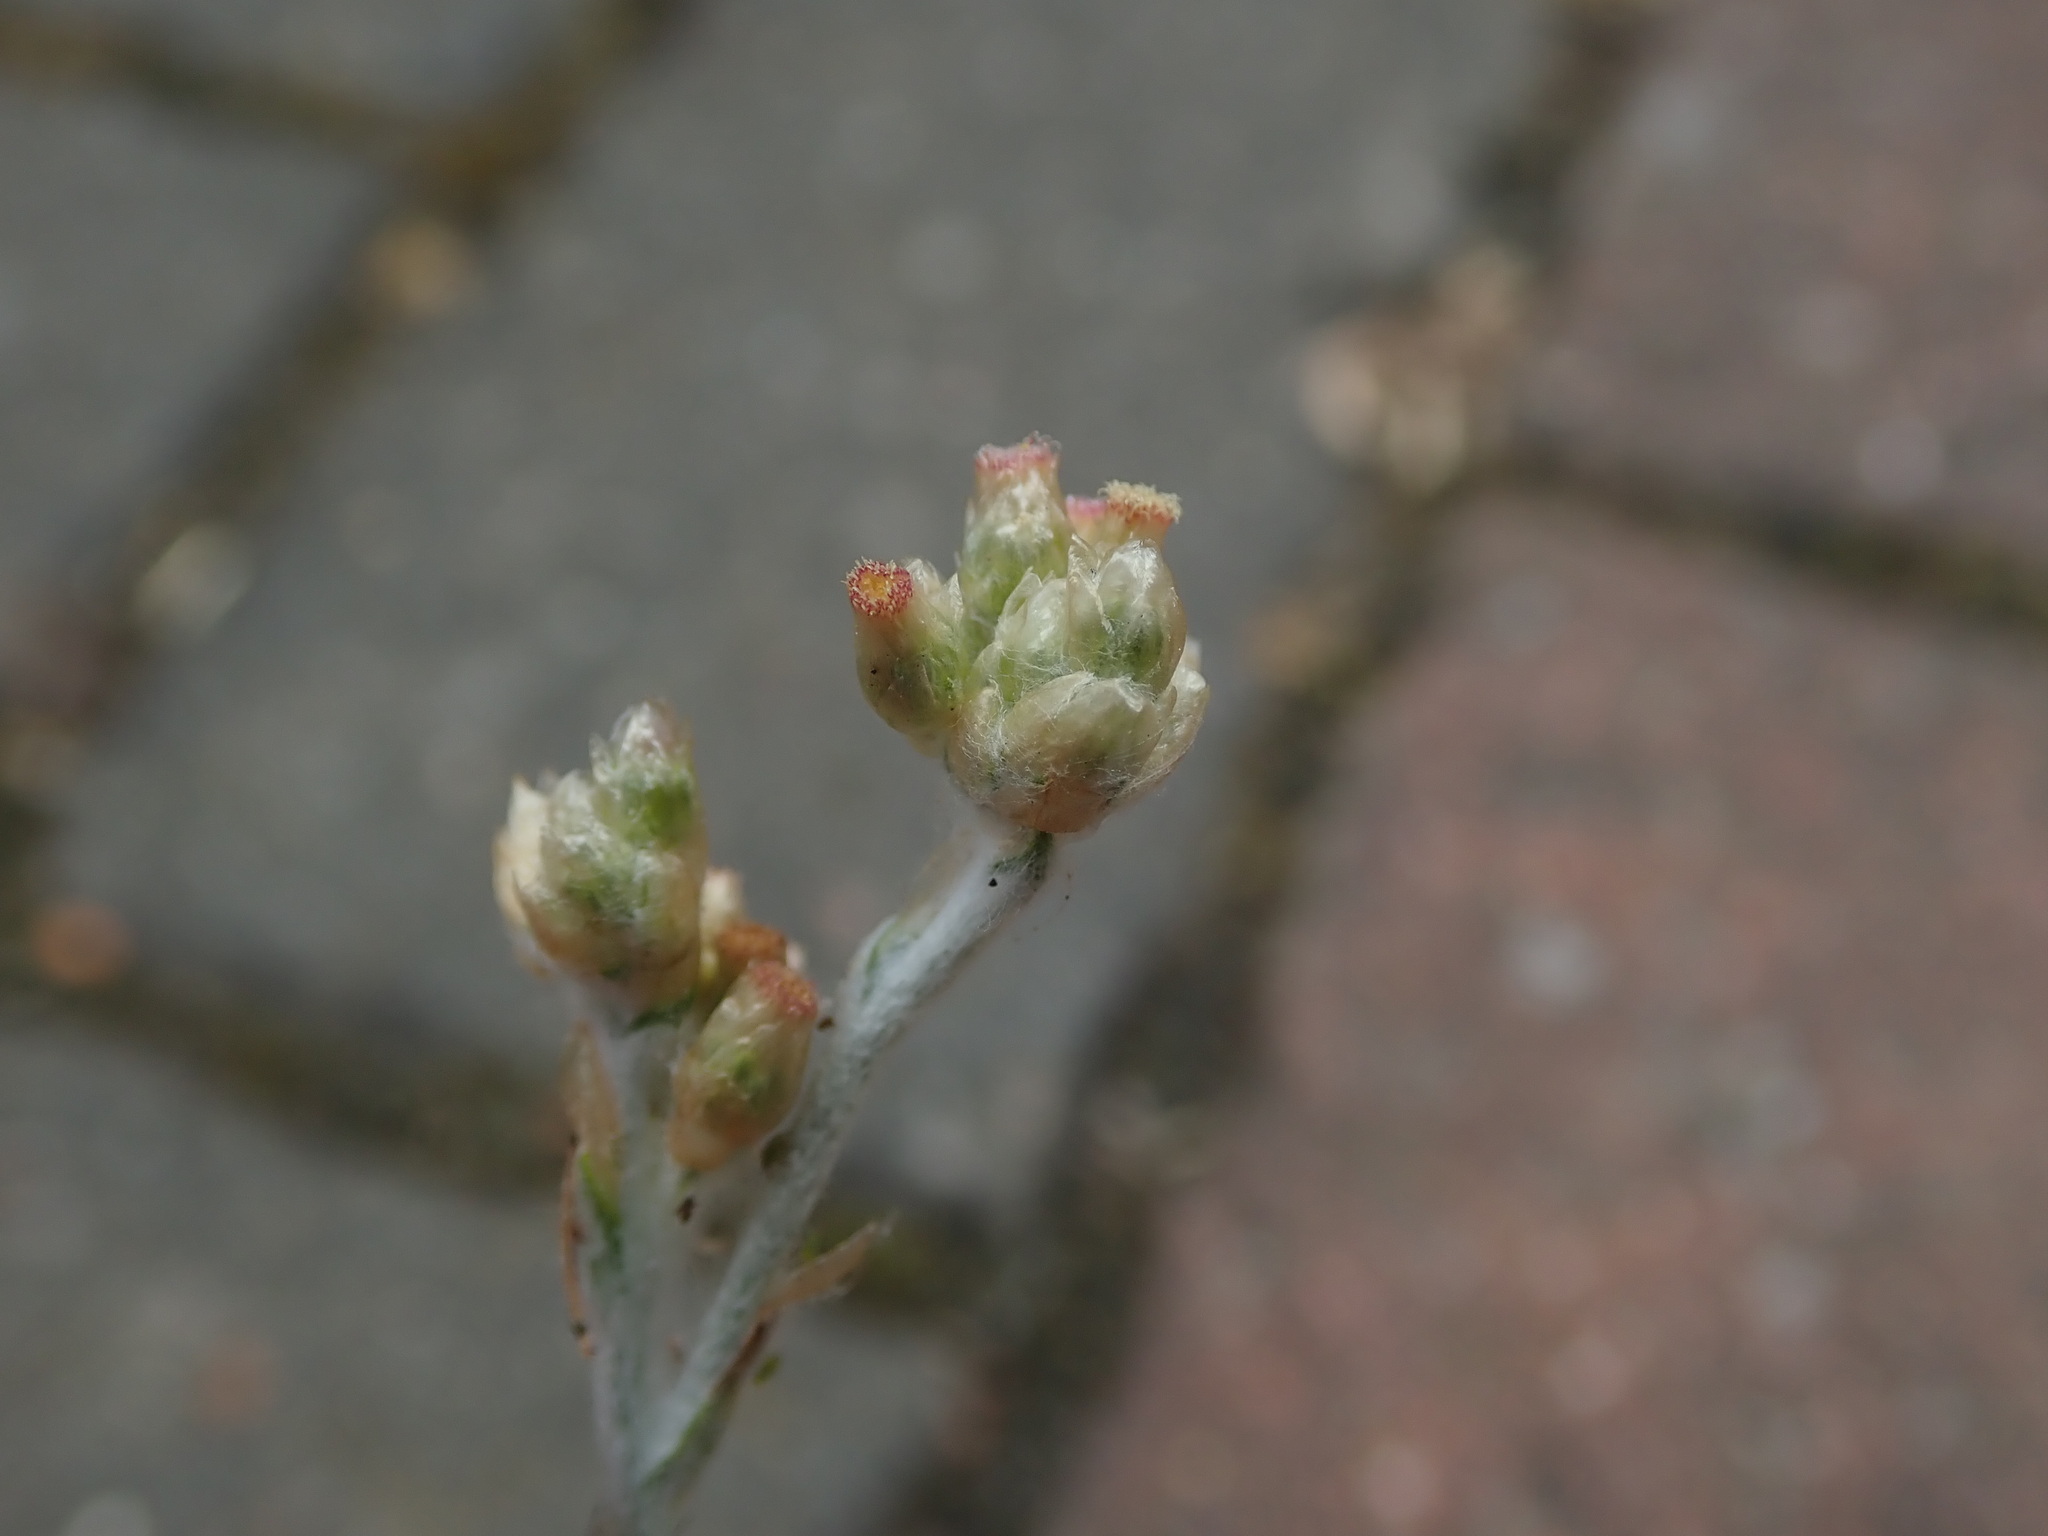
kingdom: Plantae
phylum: Tracheophyta
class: Magnoliopsida
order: Asterales
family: Asteraceae
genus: Helichrysum
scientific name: Helichrysum luteoalbum
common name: Daisy
